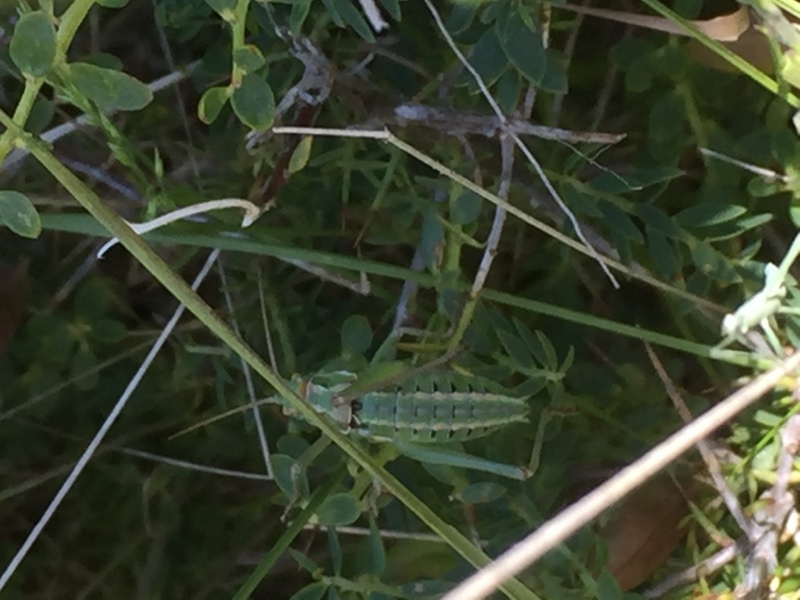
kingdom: Animalia
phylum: Arthropoda
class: Insecta
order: Orthoptera
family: Tettigoniidae
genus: Ephippigerida
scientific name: Ephippigerida diluta
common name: Diluted saddle bush-cricket
